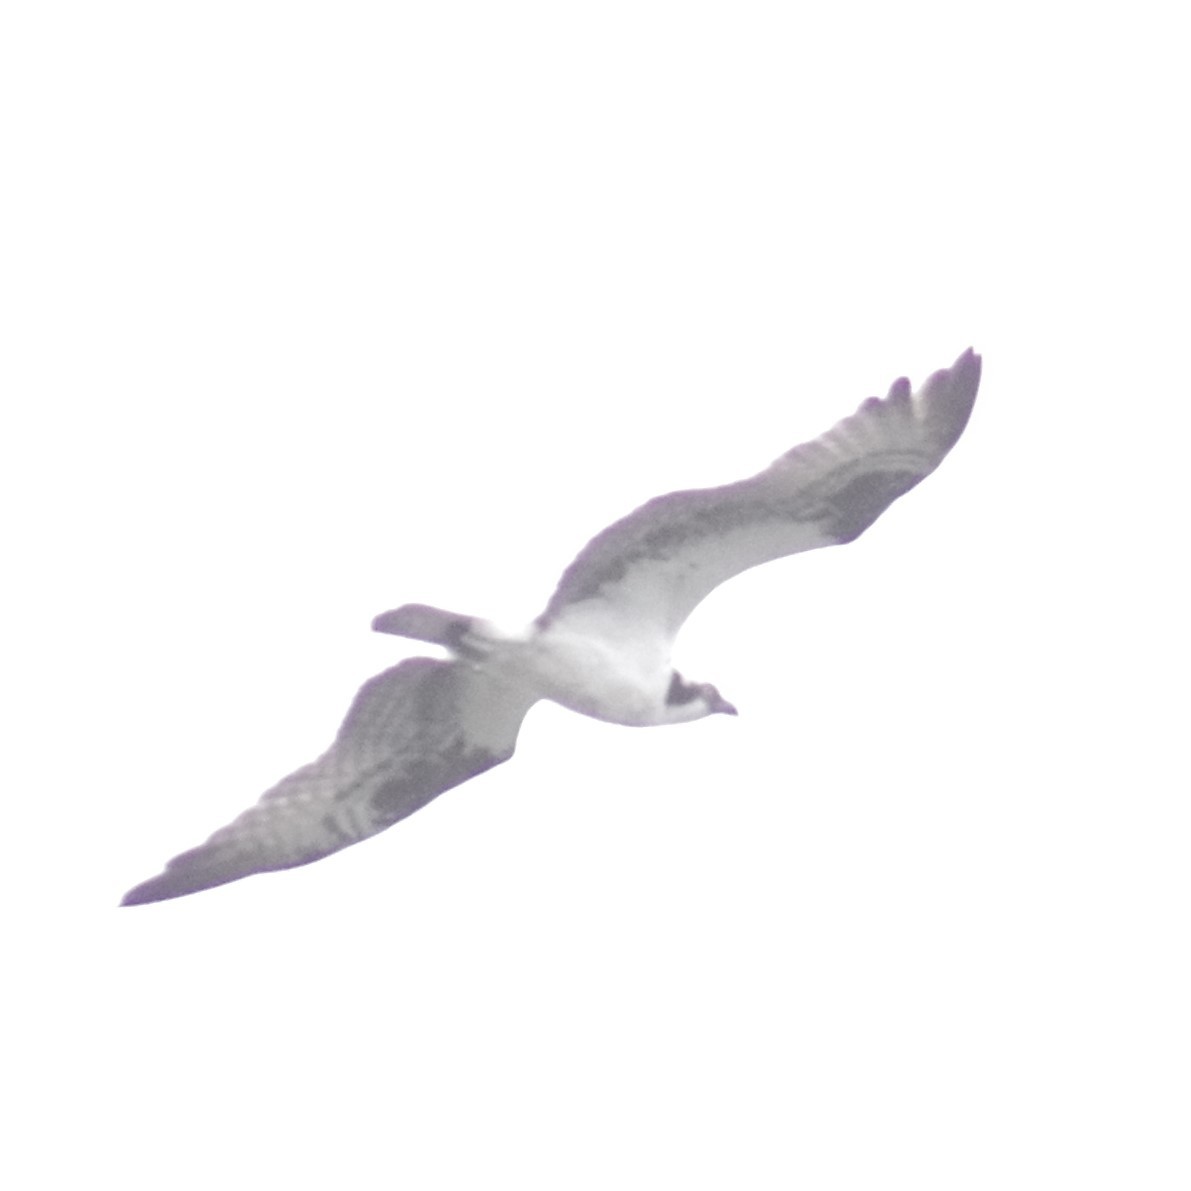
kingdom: Animalia
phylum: Chordata
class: Aves
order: Accipitriformes
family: Pandionidae
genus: Pandion
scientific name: Pandion haliaetus
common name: Osprey
